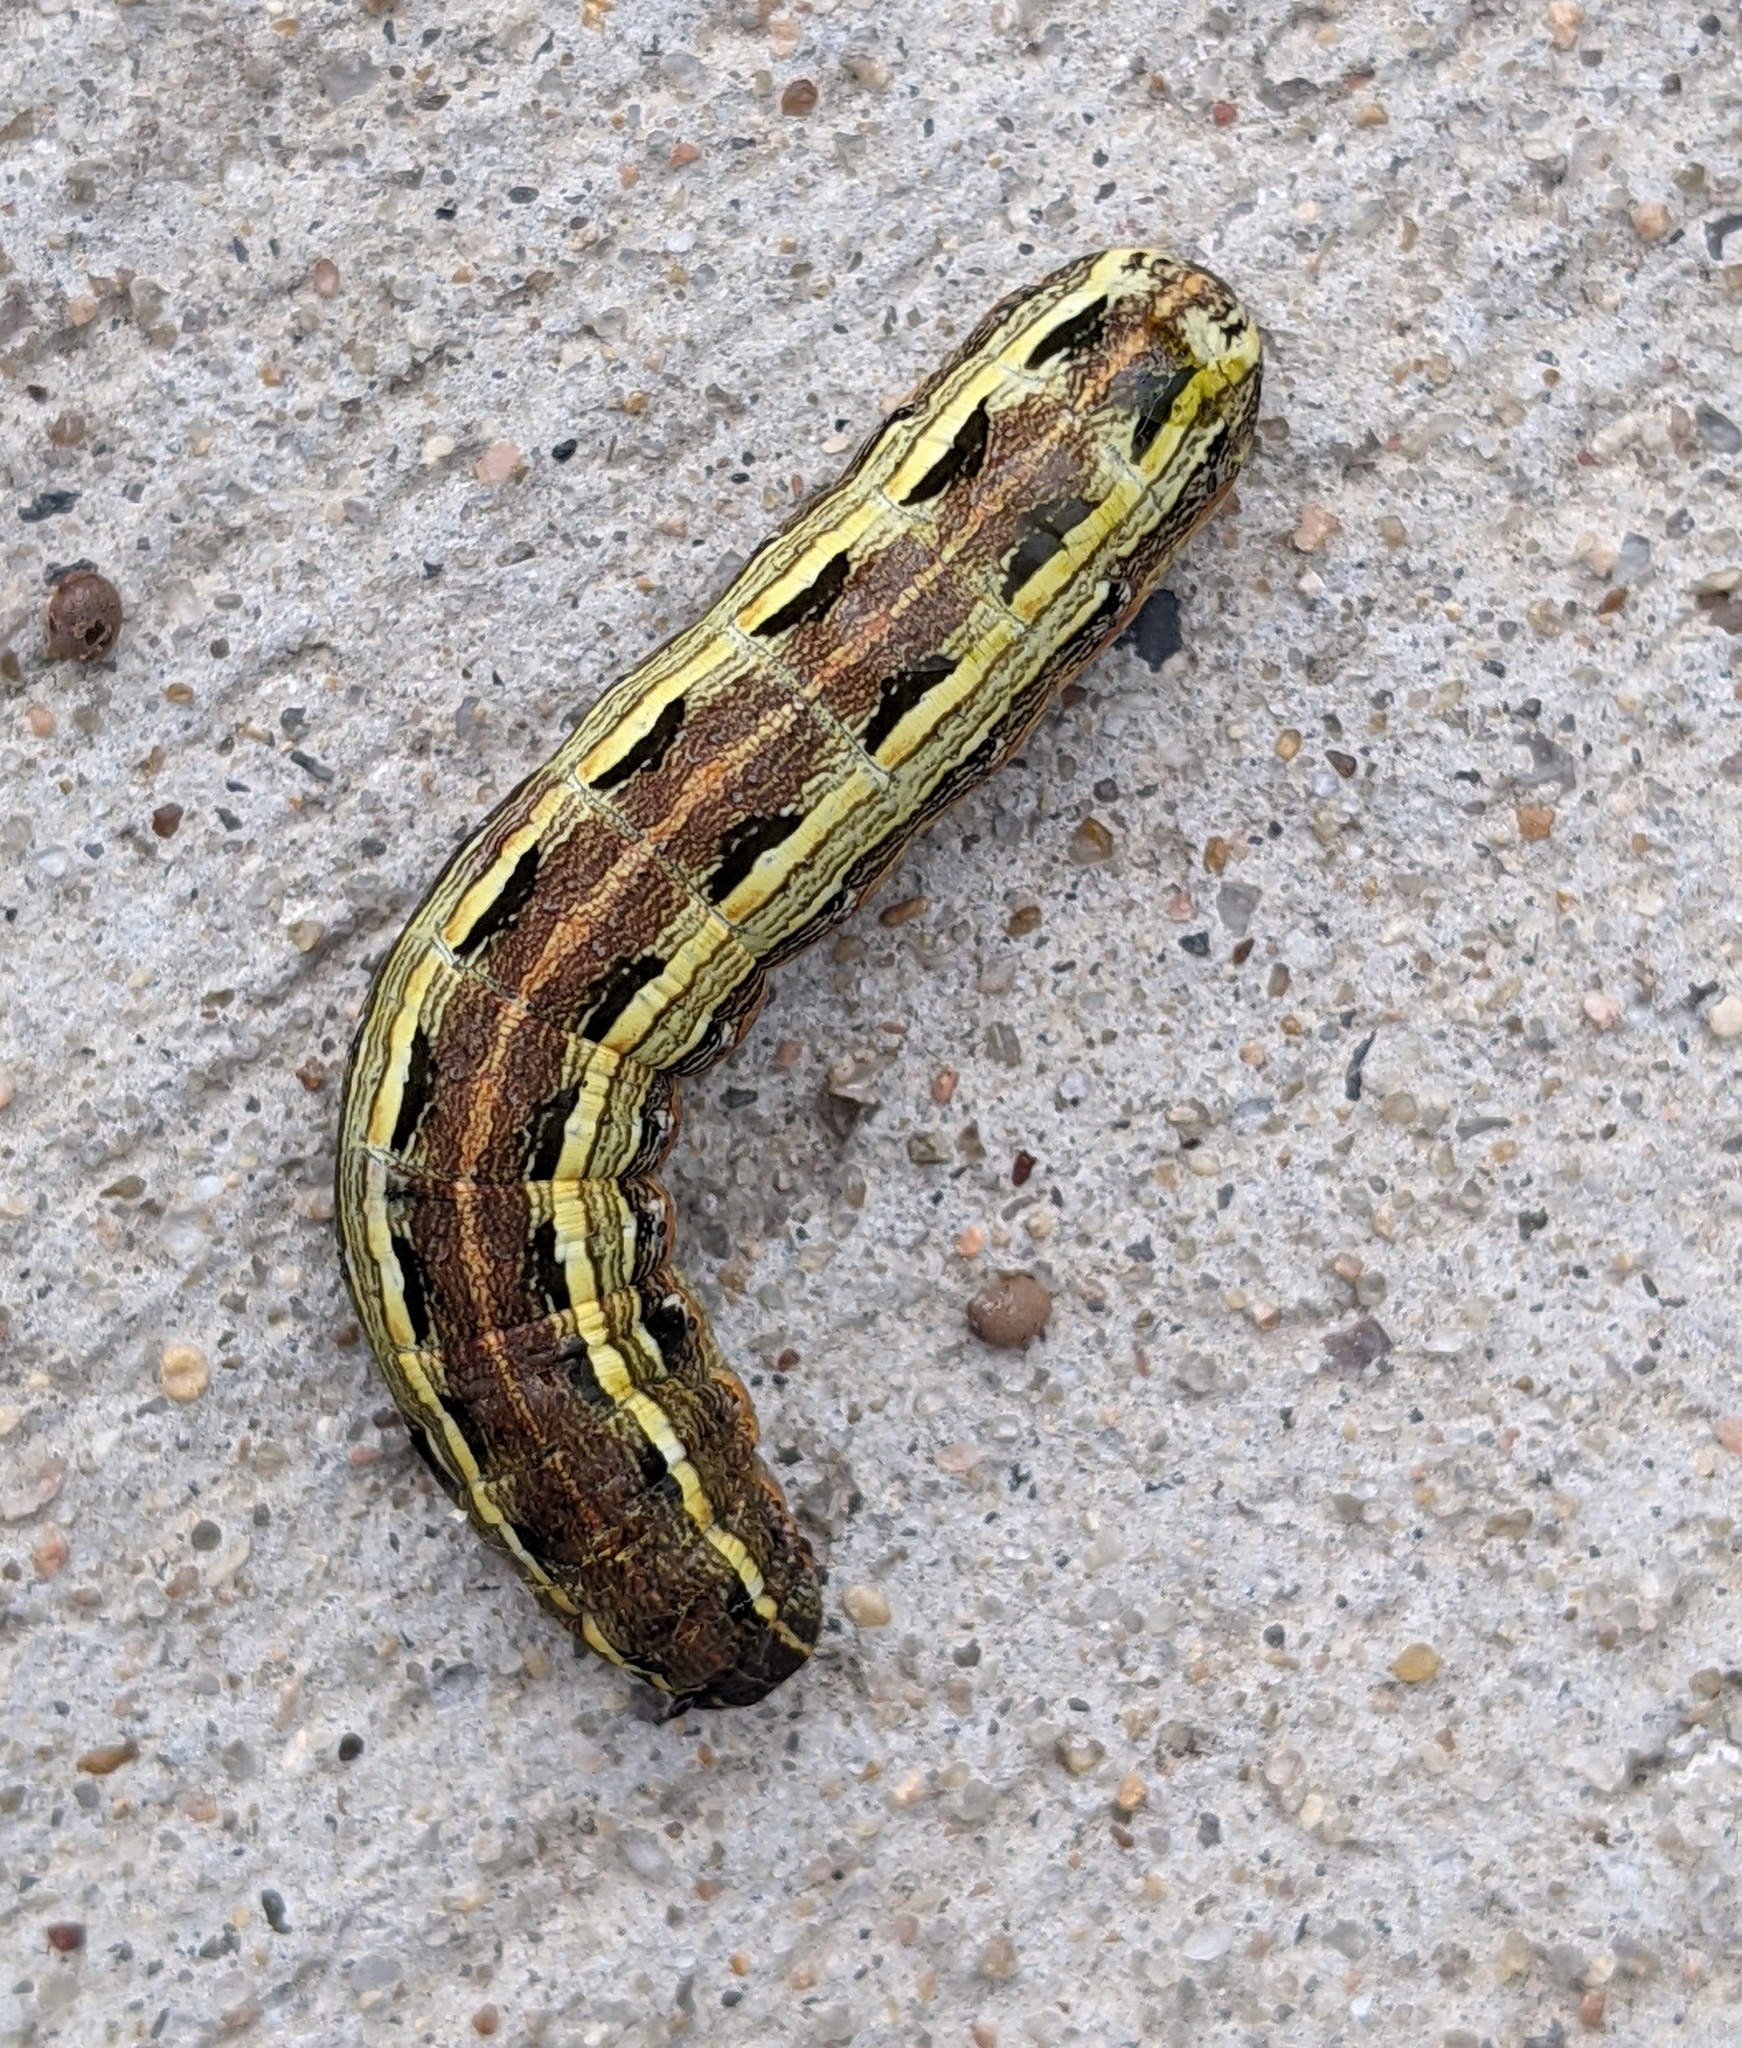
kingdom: Animalia
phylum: Arthropoda
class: Insecta
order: Lepidoptera
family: Noctuidae
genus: Spodoptera
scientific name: Spodoptera ornithogalli
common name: Yellow-striped armyworm
